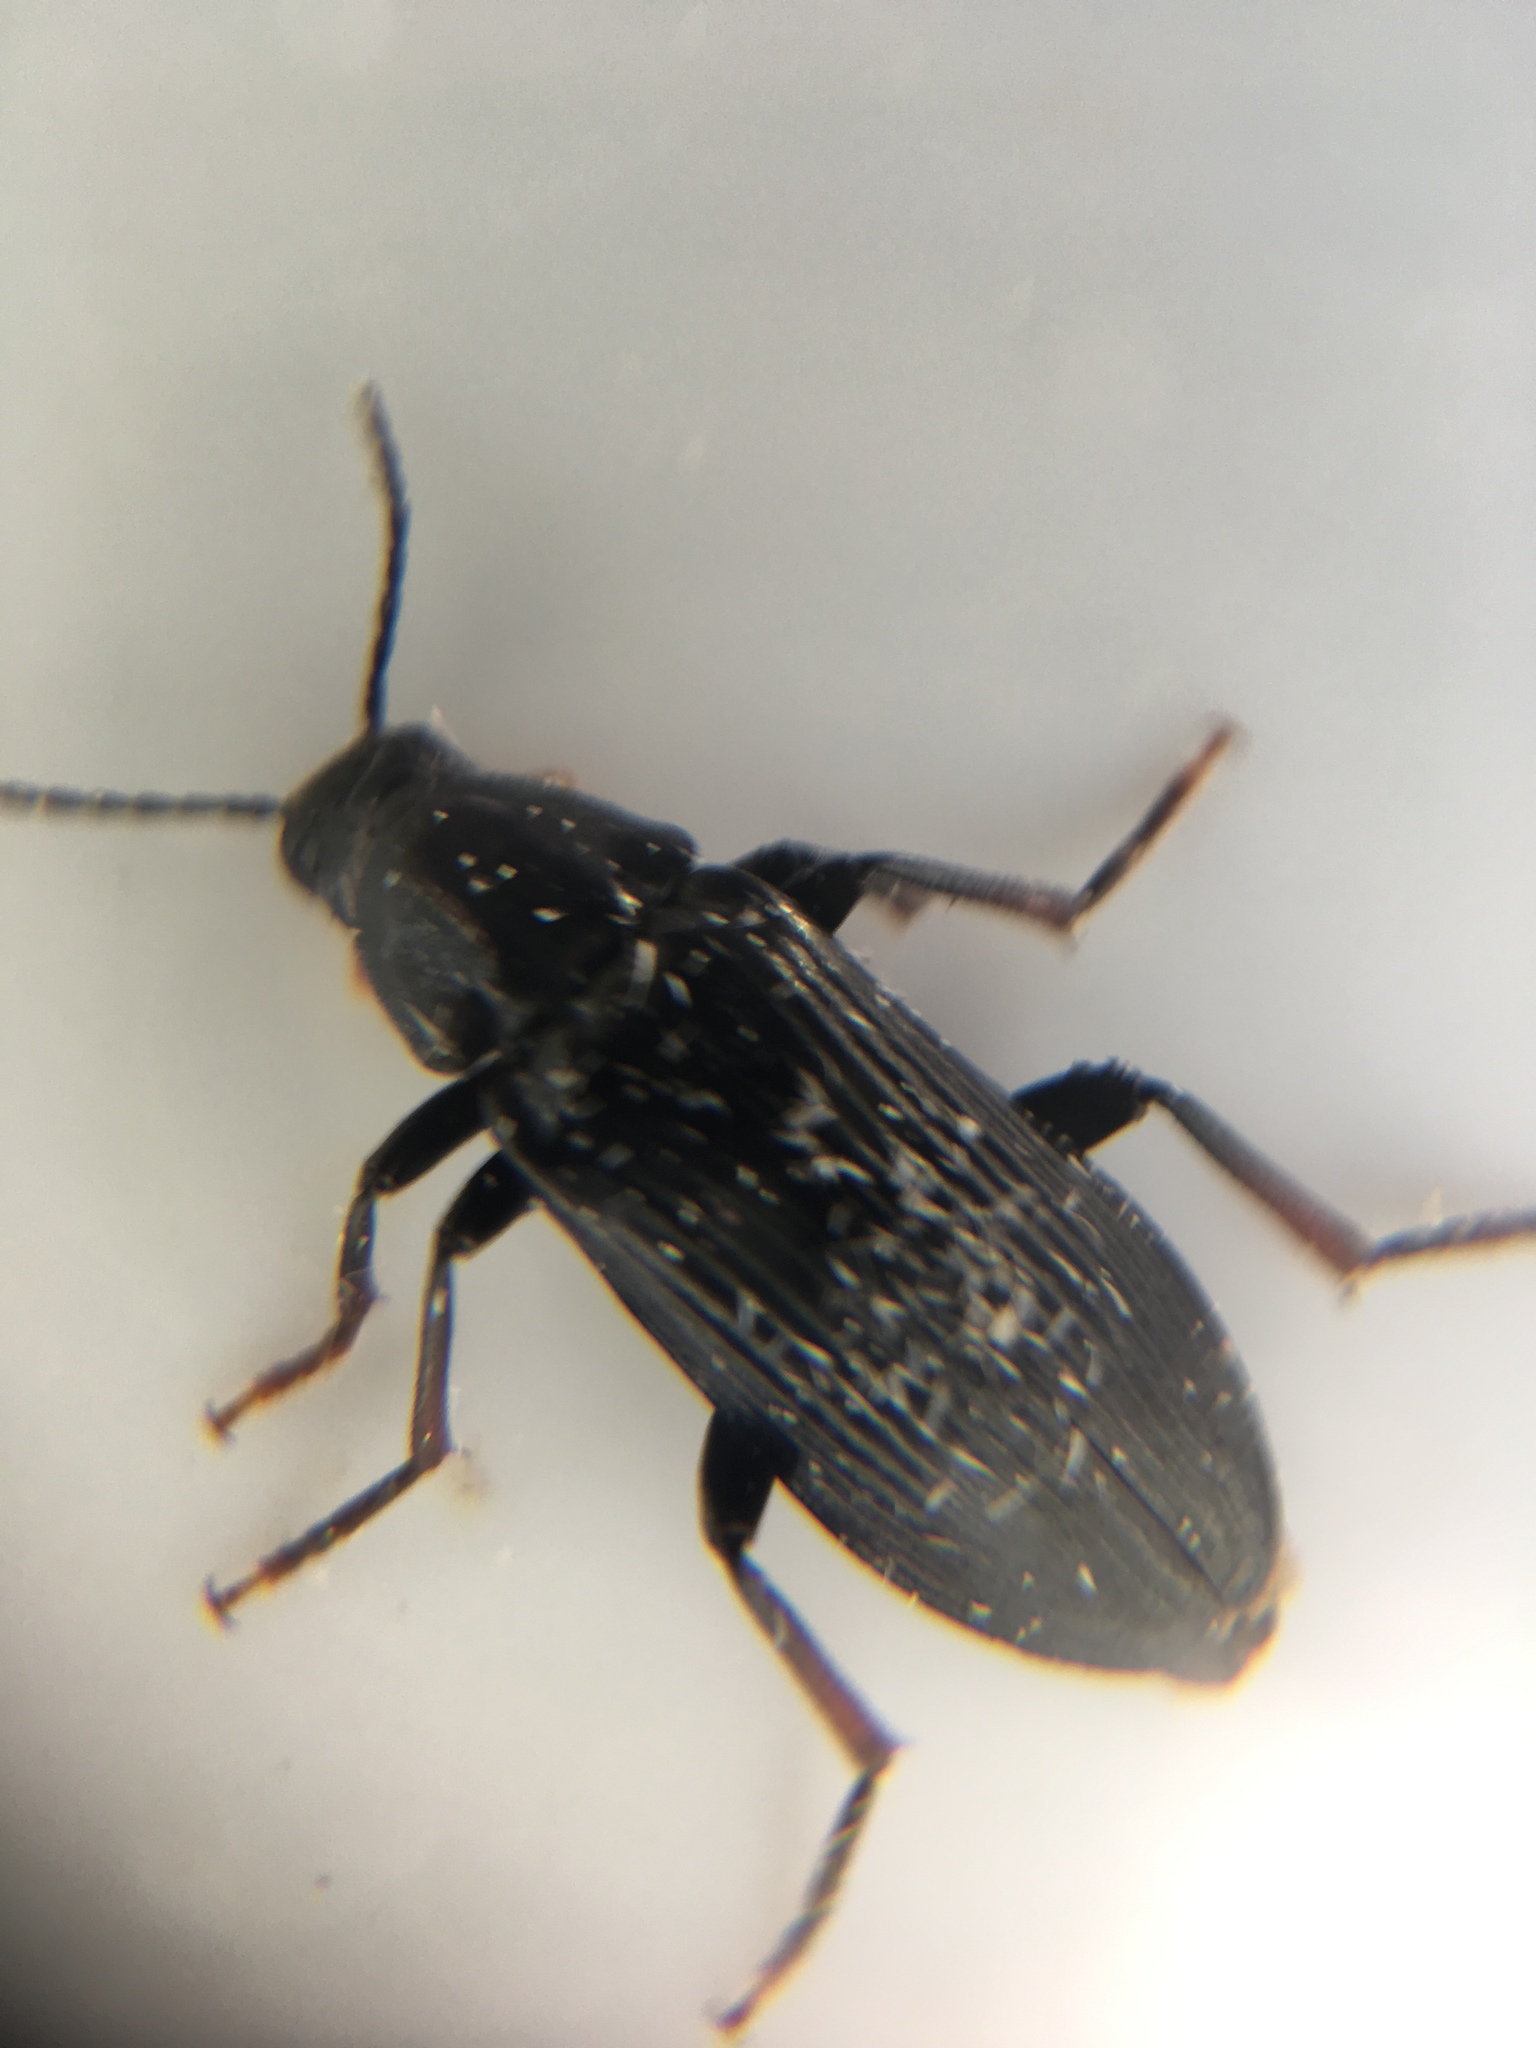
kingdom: Animalia
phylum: Arthropoda
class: Insecta
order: Coleoptera
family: Melandryidae
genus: Melandrya
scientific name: Melandrya striata
